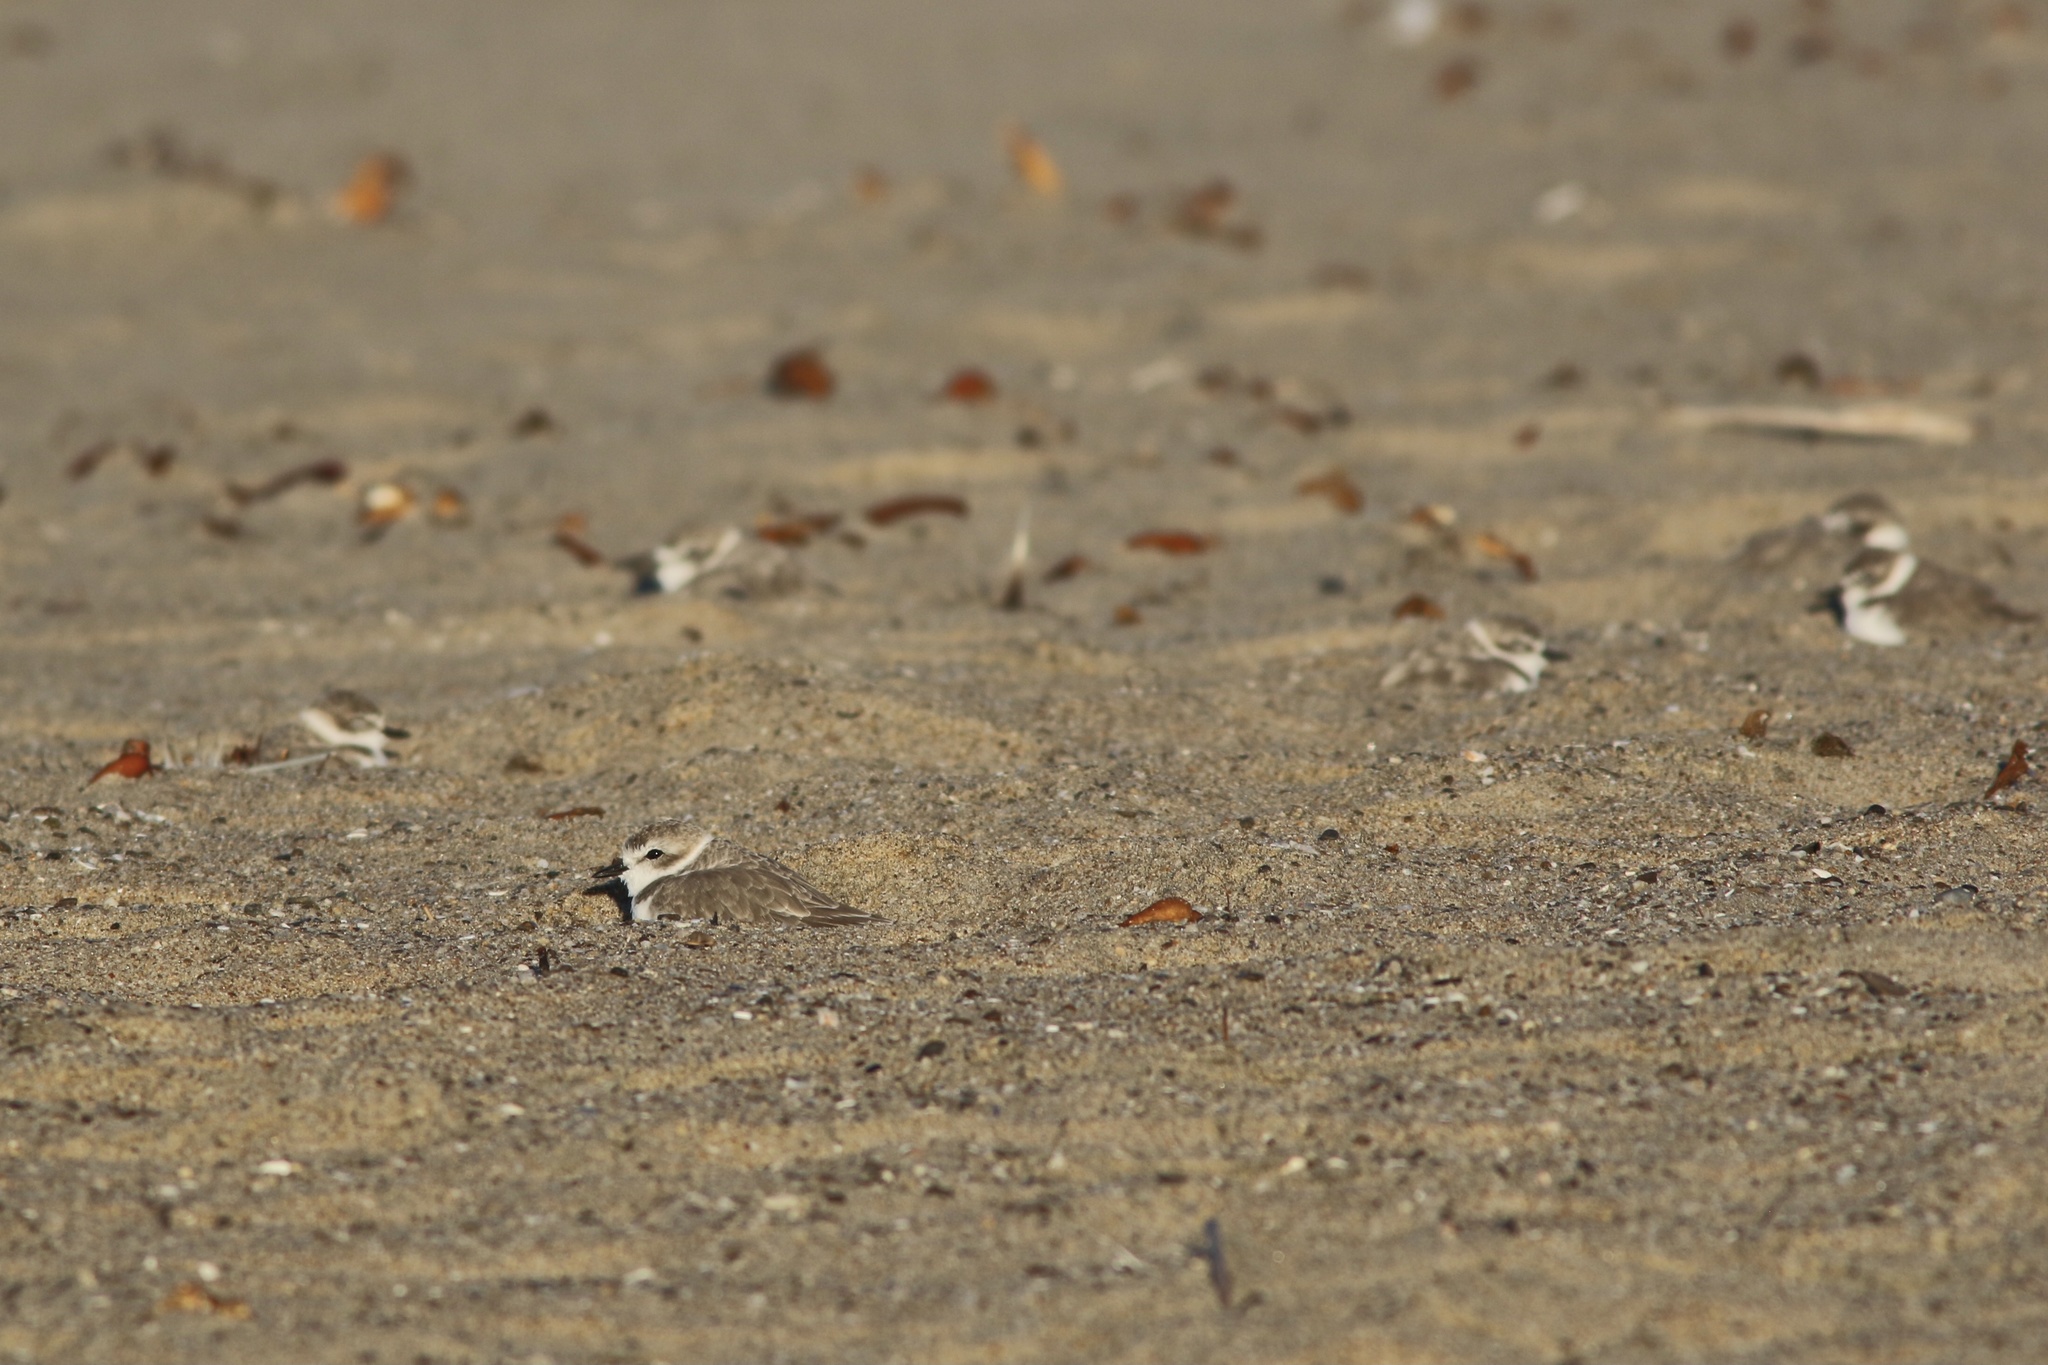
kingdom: Animalia
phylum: Chordata
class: Aves
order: Charadriiformes
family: Charadriidae
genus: Anarhynchus
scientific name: Anarhynchus
